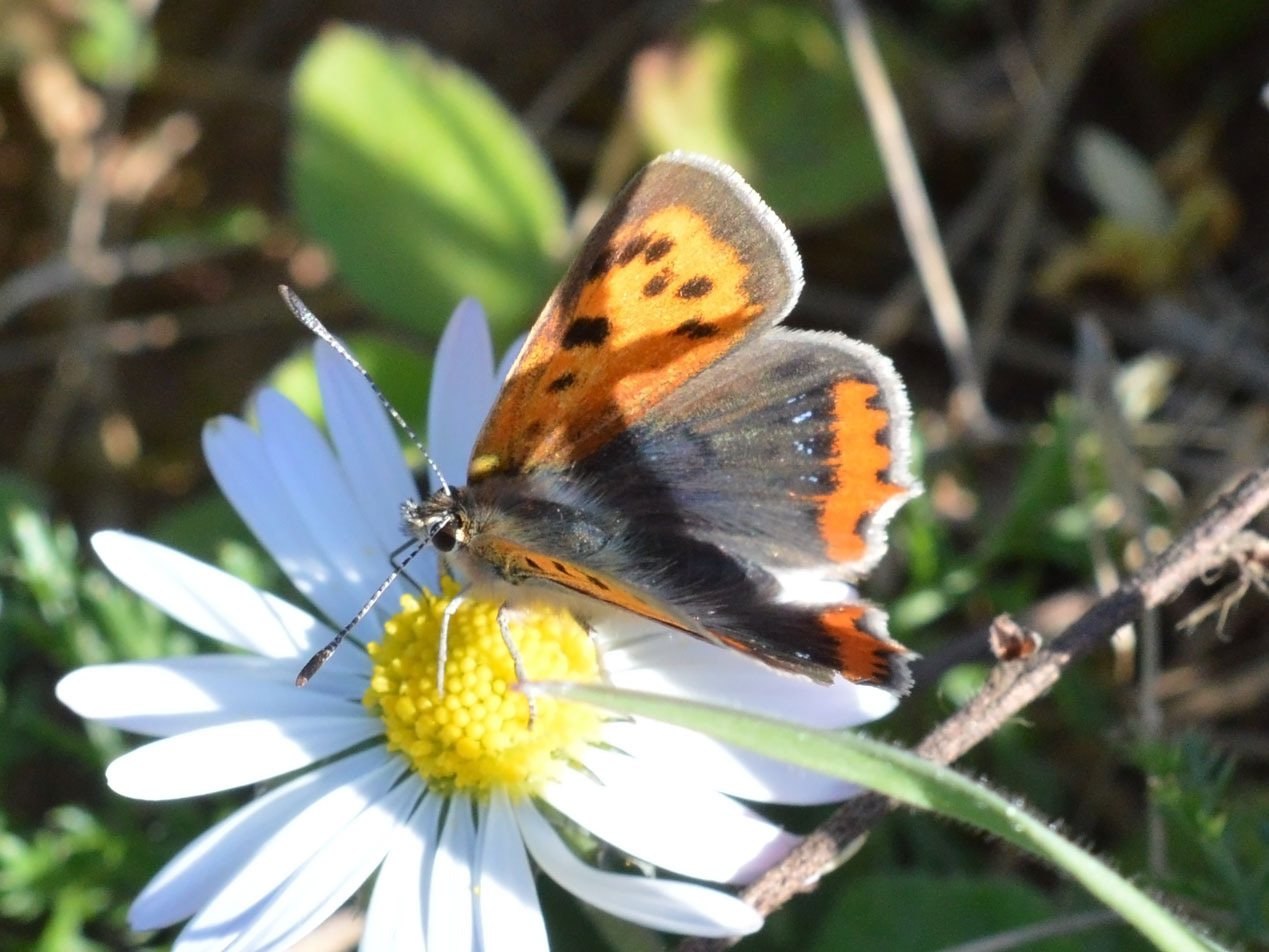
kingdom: Animalia
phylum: Arthropoda
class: Insecta
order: Lepidoptera
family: Lycaenidae
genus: Lycaena
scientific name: Lycaena phlaeas
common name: Small copper
